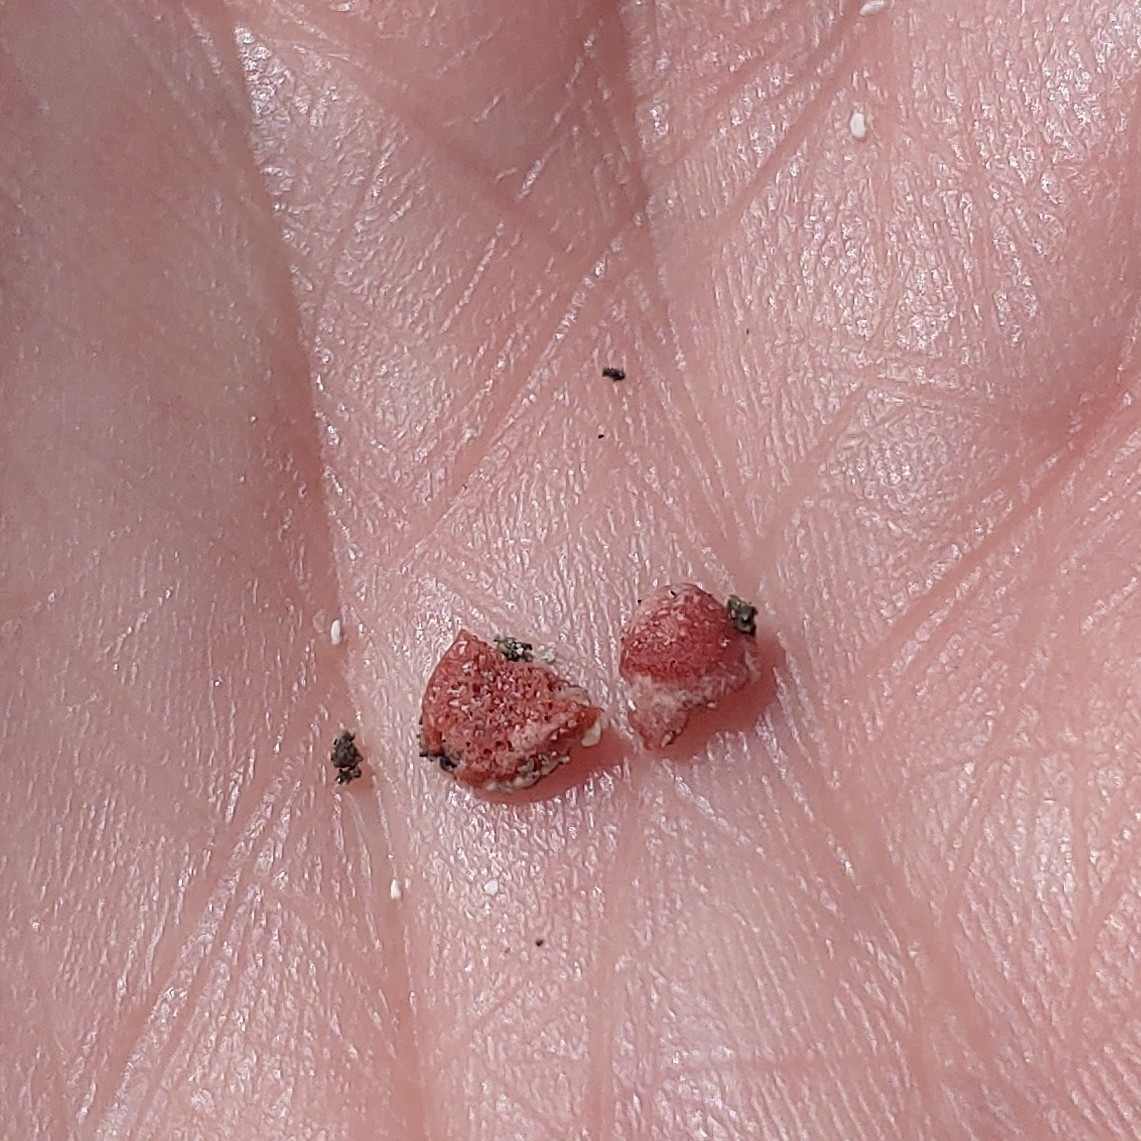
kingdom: Chromista
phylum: Foraminifera
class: Globothalamea
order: Rotaliida
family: Homotrematidae
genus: Homotrema
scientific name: Homotrema rubrum
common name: Red foram
